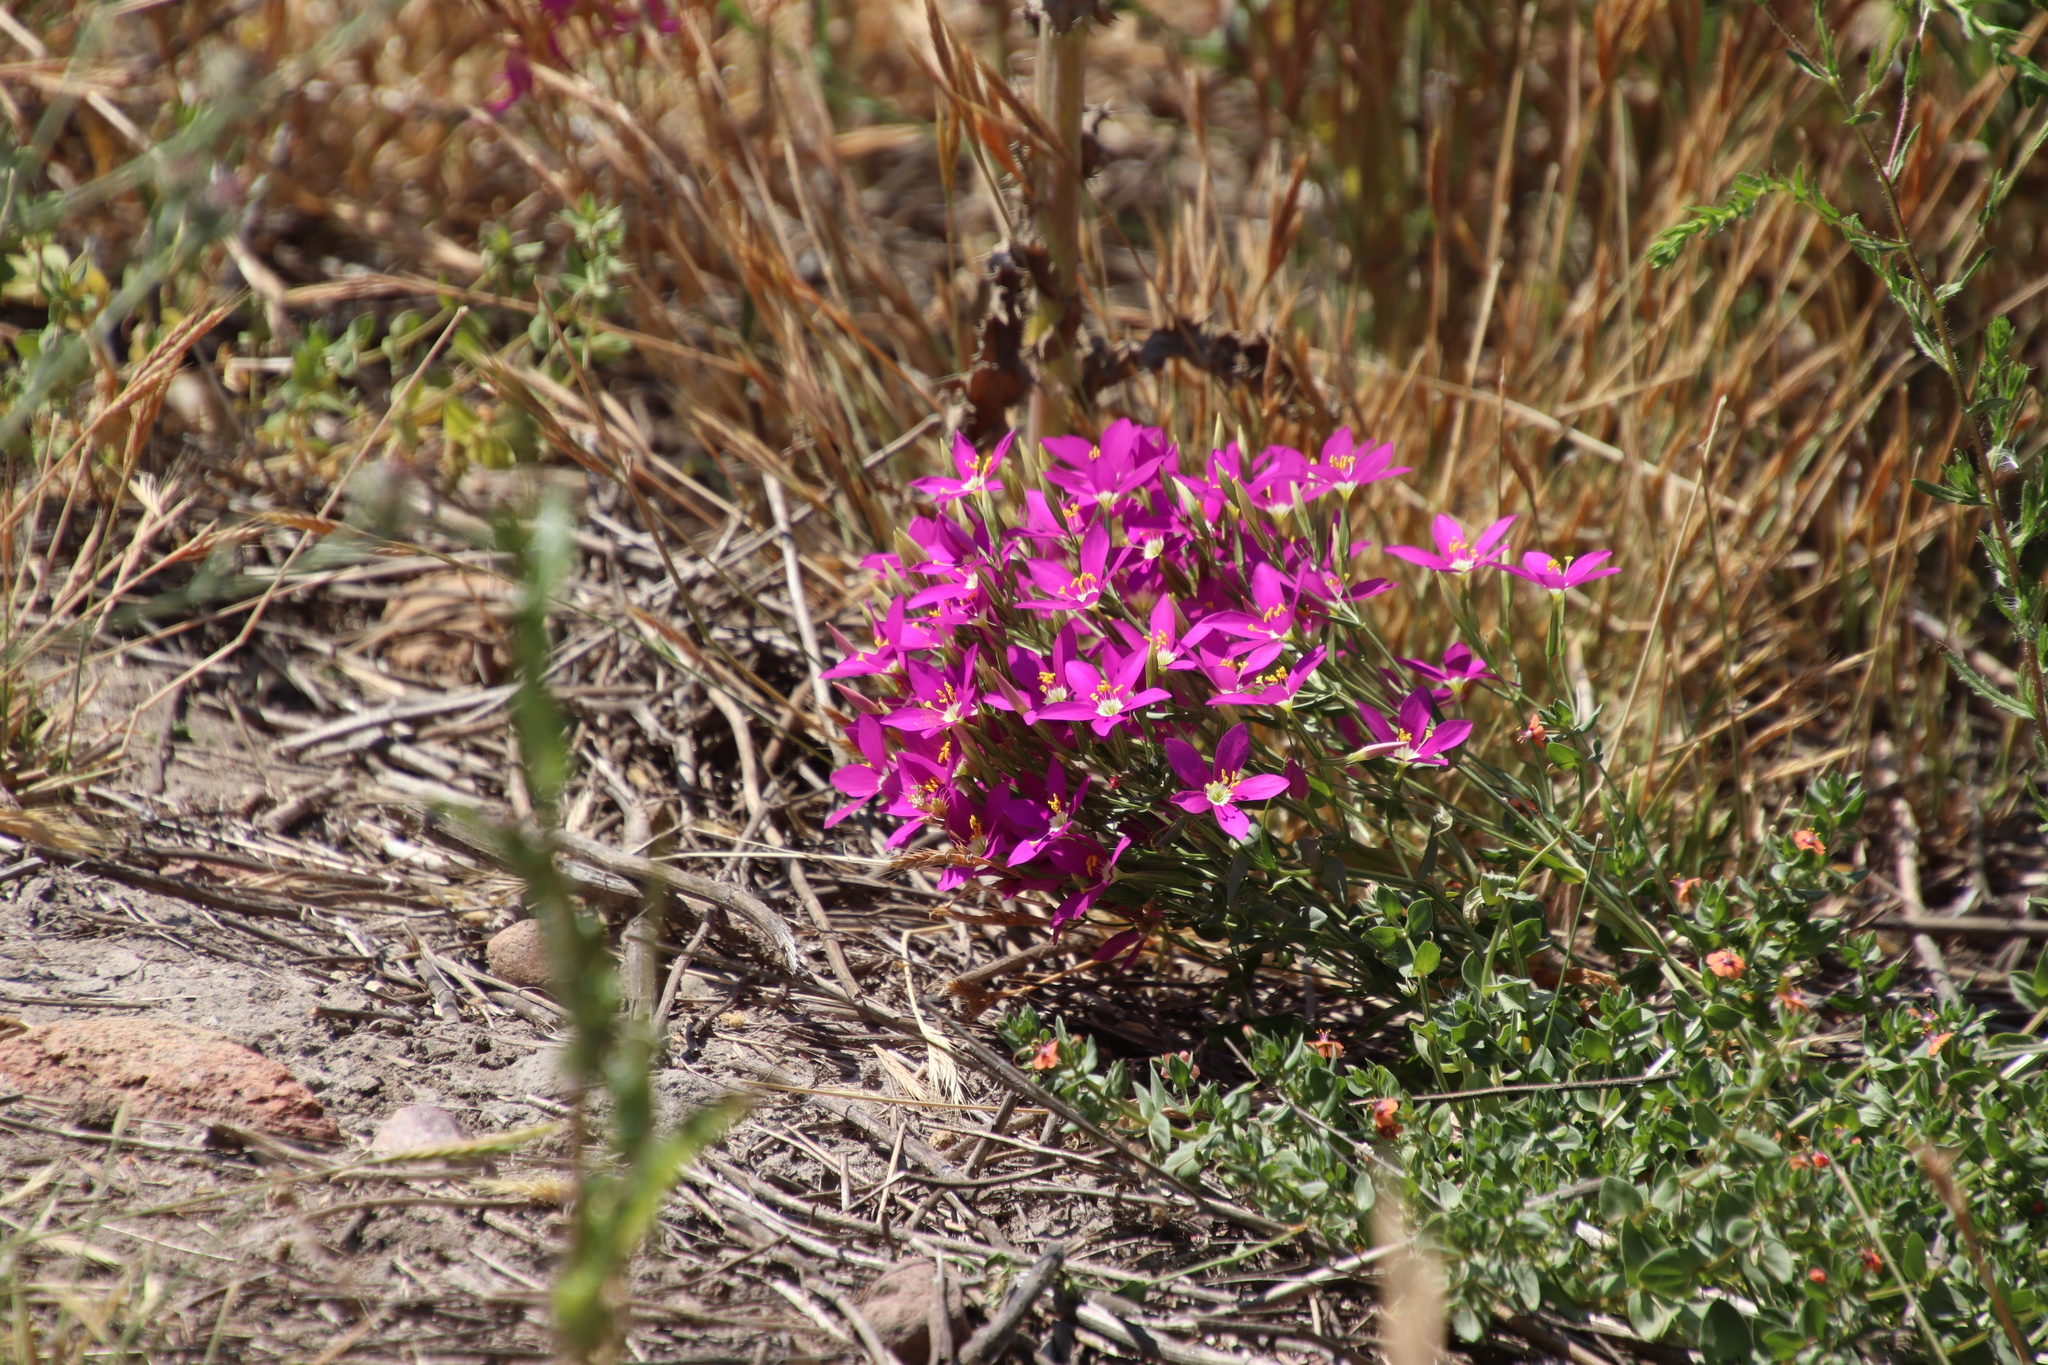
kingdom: Plantae
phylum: Tracheophyta
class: Magnoliopsida
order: Gentianales
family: Gentianaceae
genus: Zeltnera
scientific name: Zeltnera venusta
